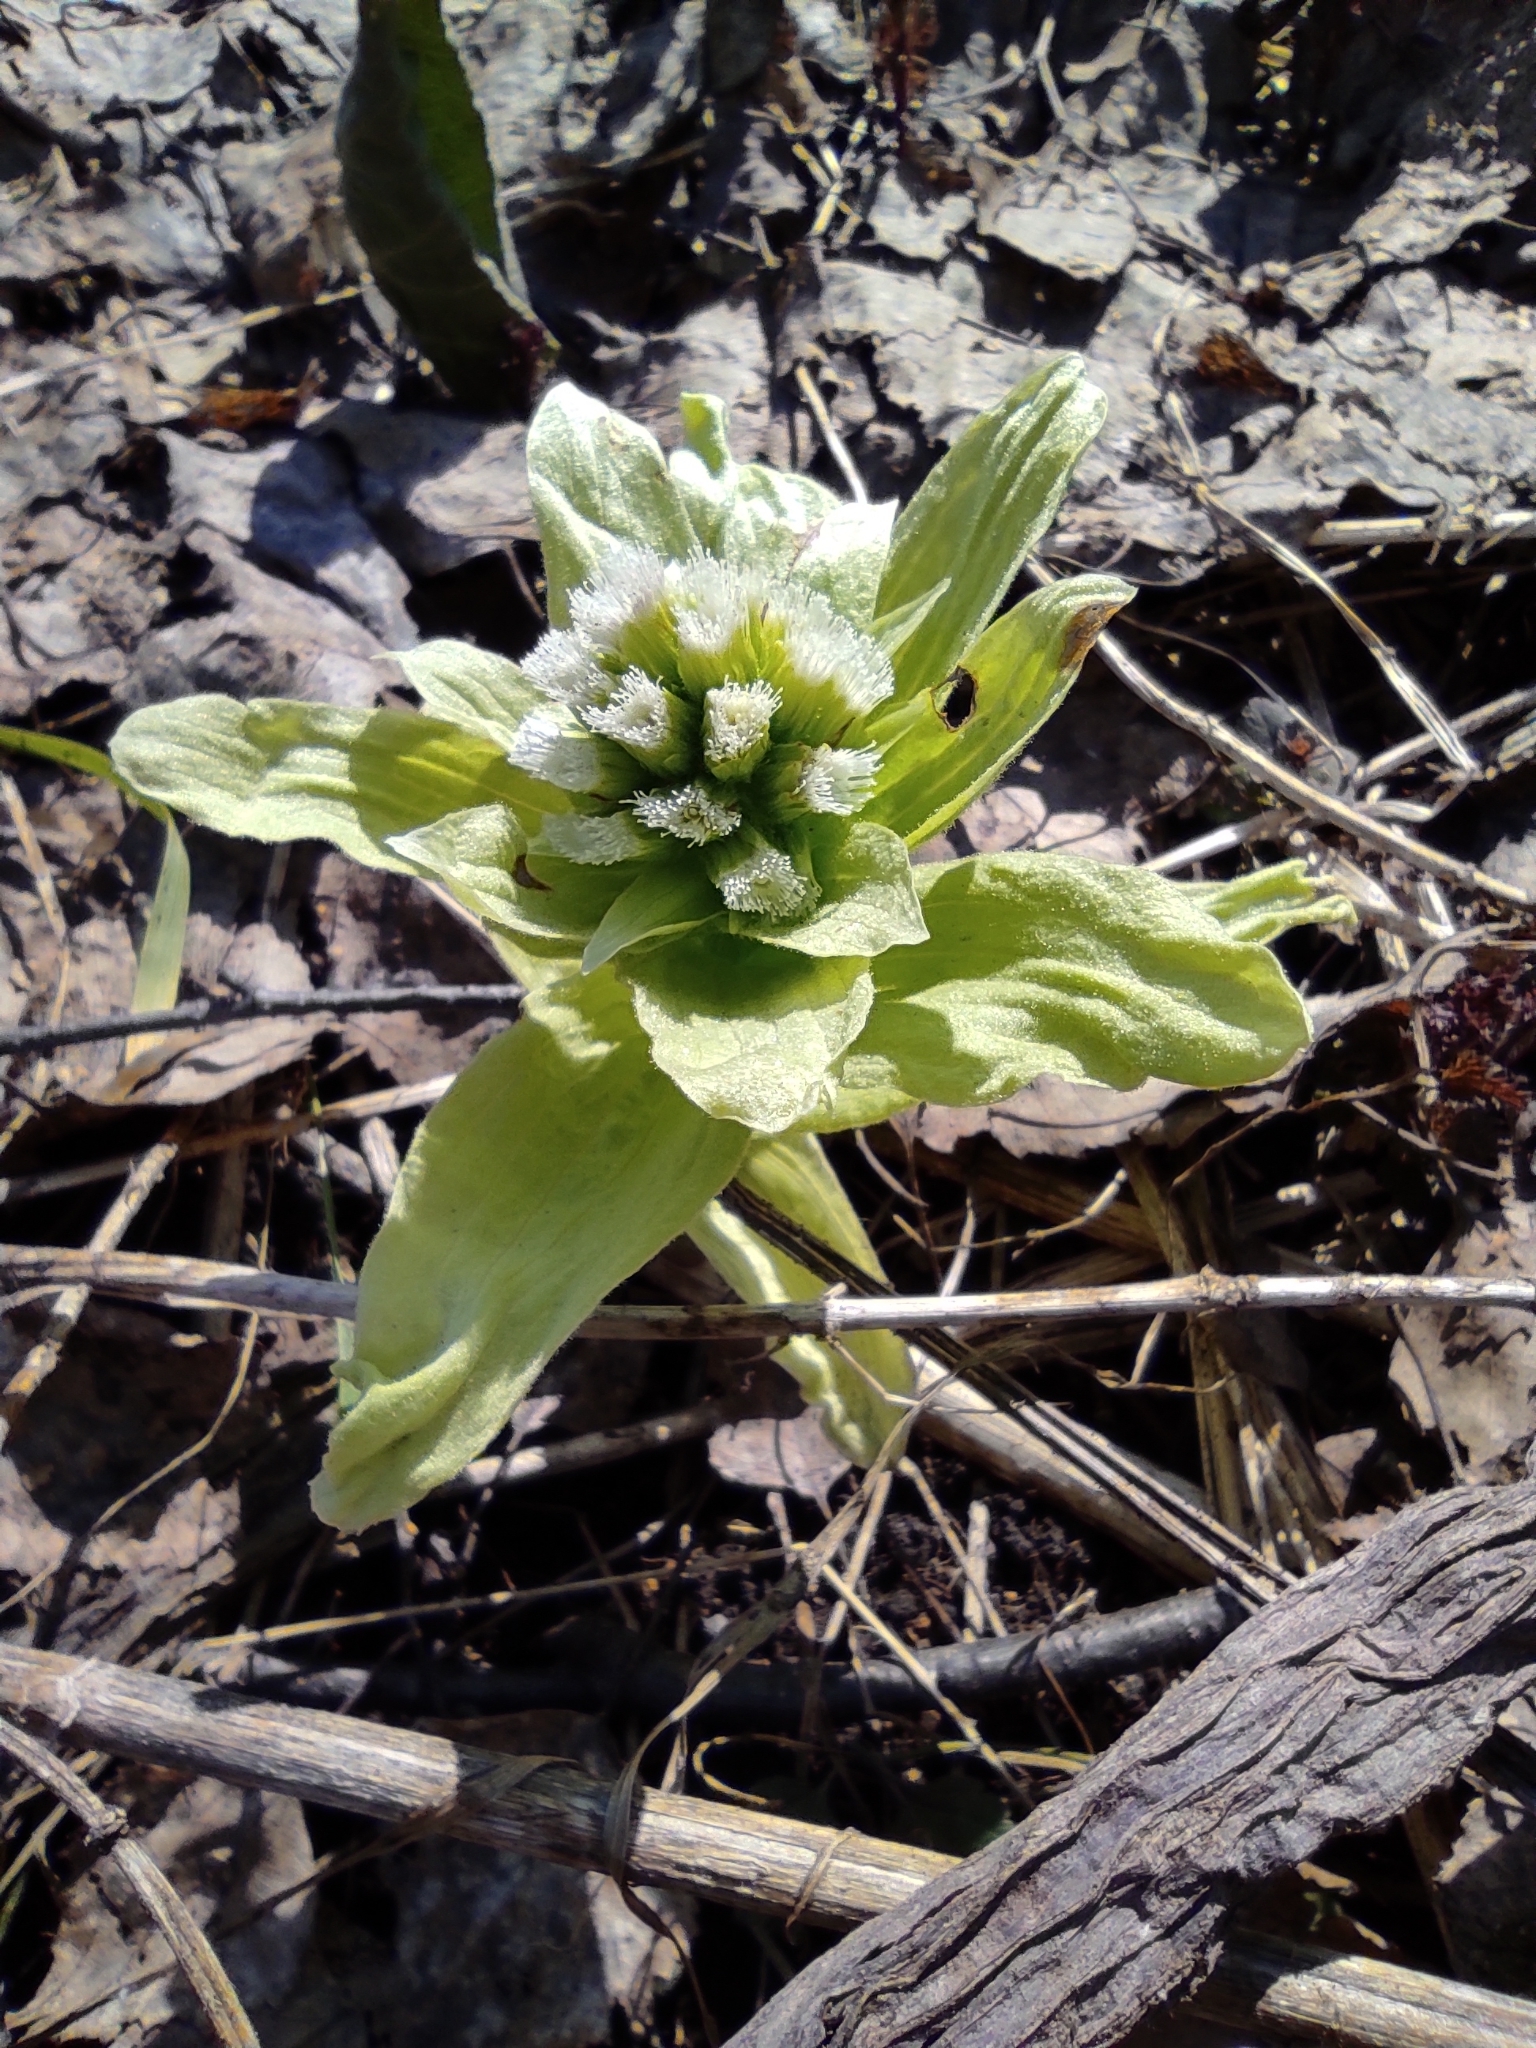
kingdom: Plantae
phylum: Tracheophyta
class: Magnoliopsida
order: Asterales
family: Asteraceae
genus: Petasites
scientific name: Petasites japonicus
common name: Giant butterbur
